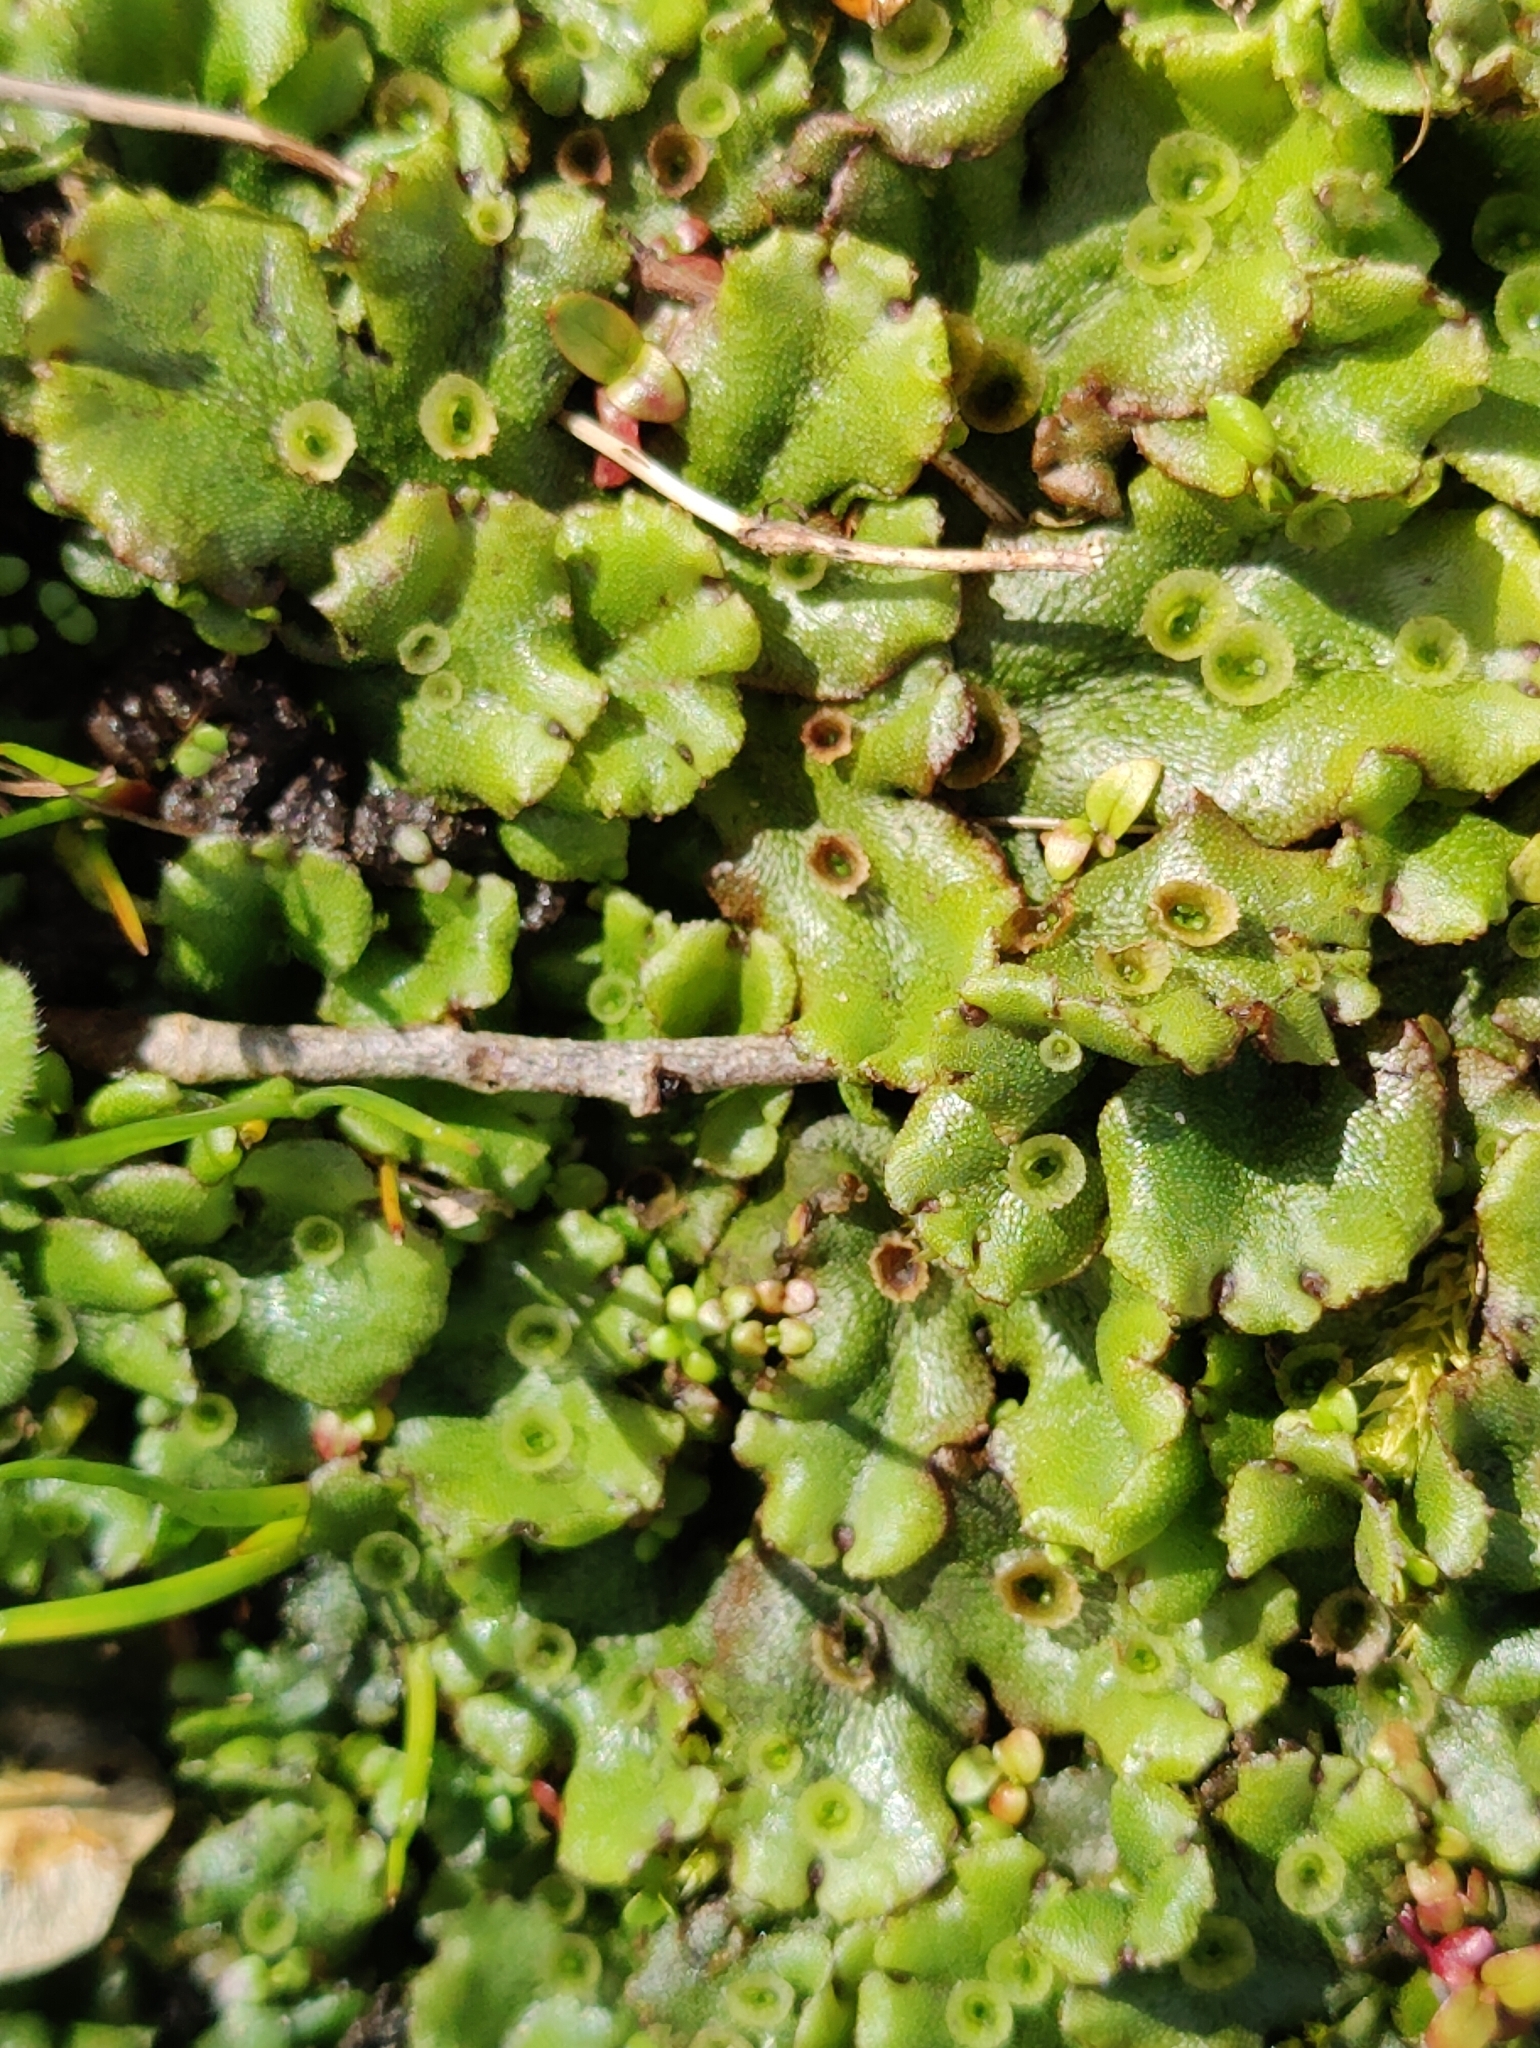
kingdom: Plantae
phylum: Marchantiophyta
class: Marchantiopsida
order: Marchantiales
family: Marchantiaceae
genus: Marchantia
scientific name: Marchantia polymorpha
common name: Common liverwort
